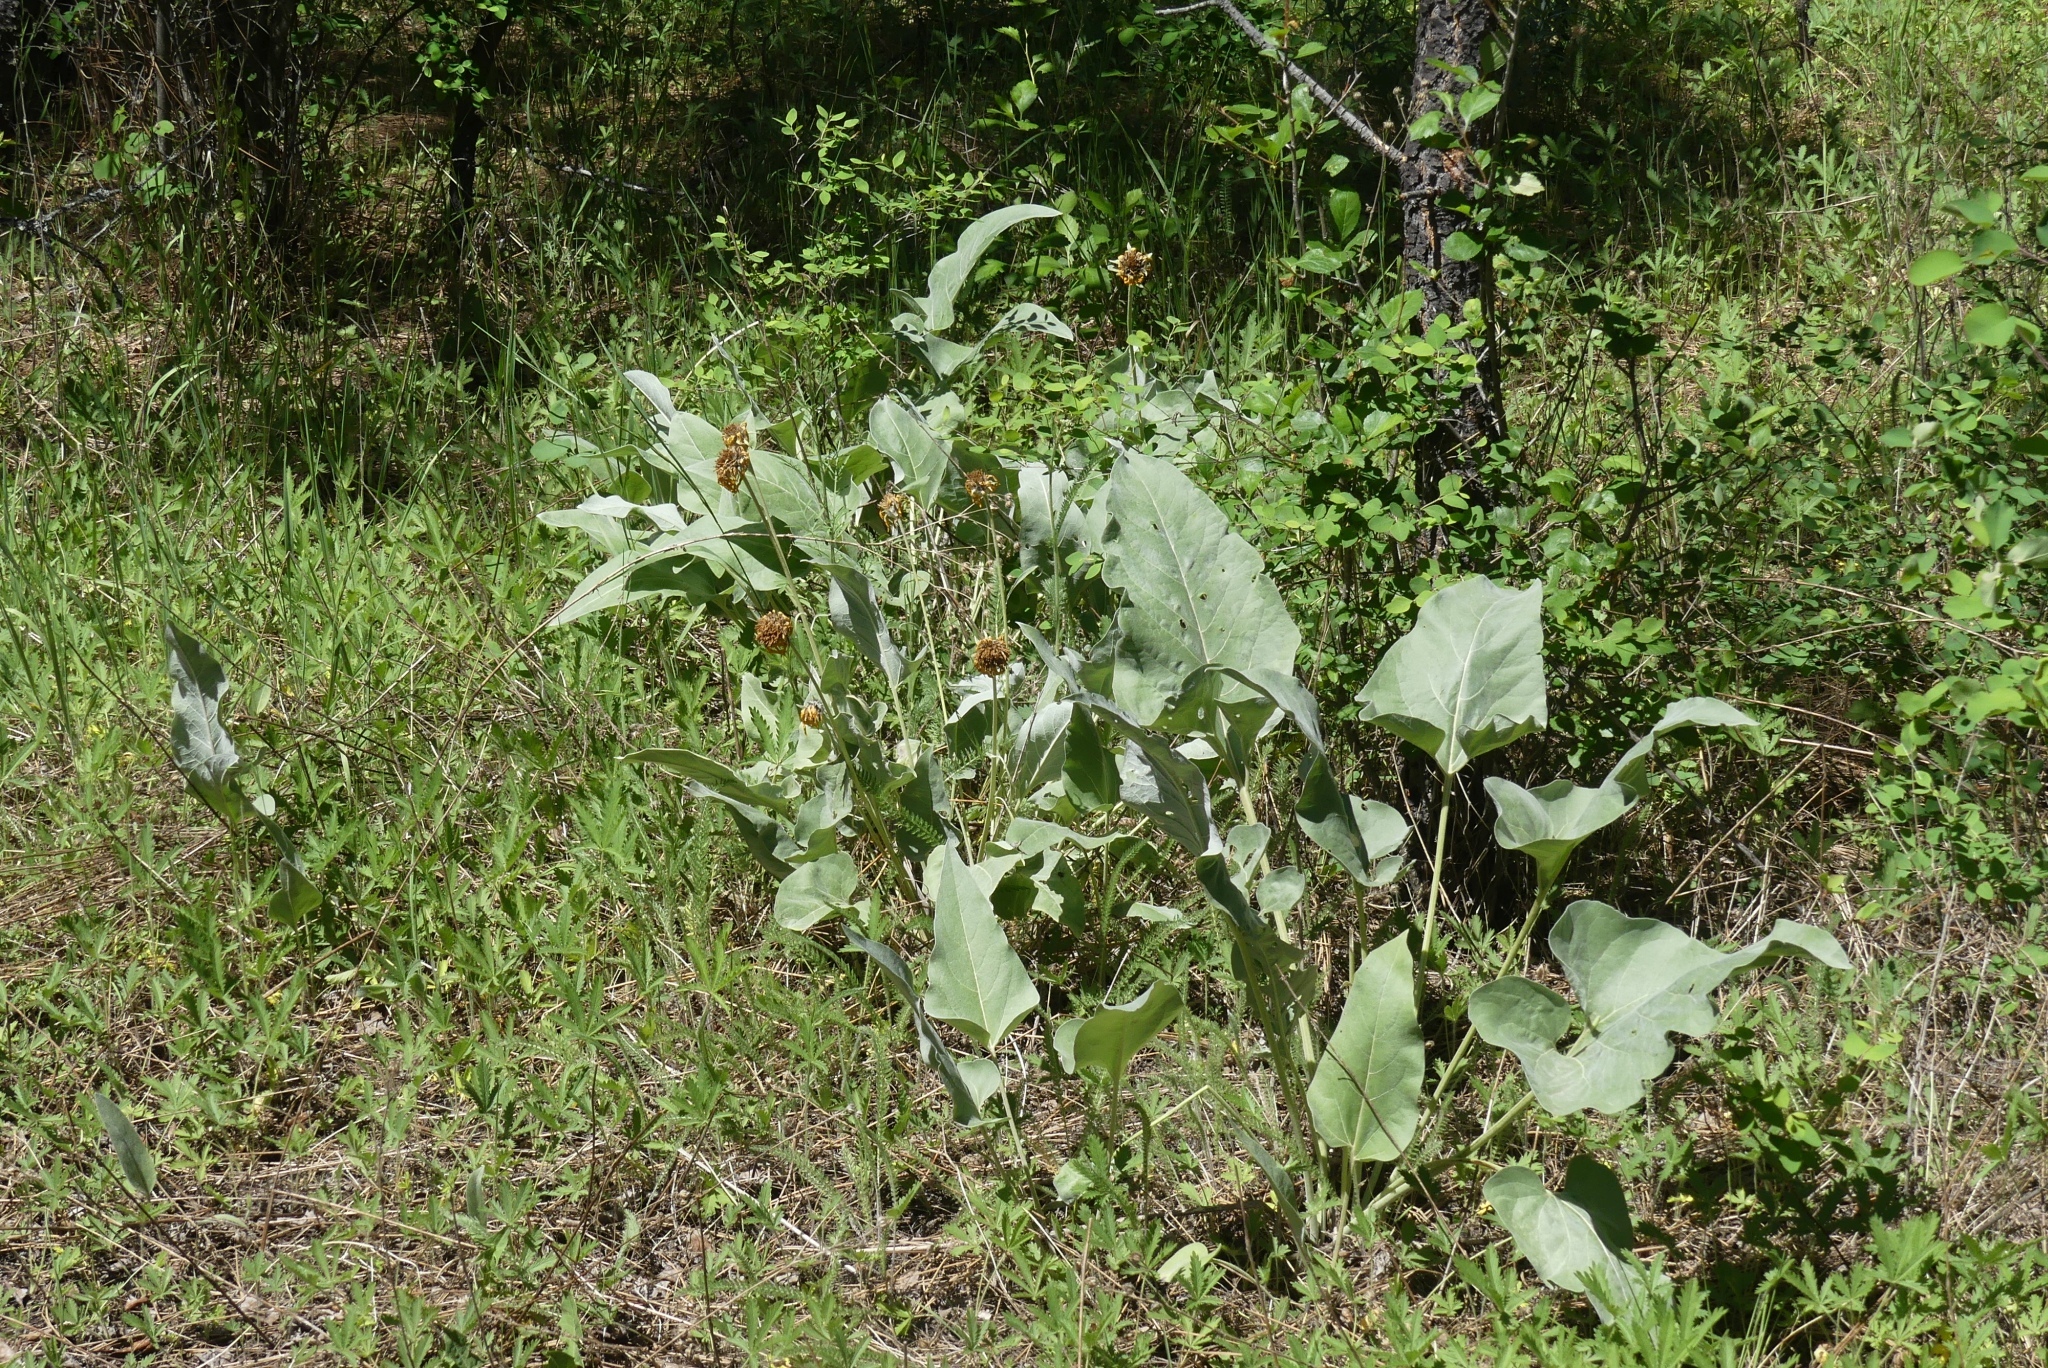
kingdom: Plantae
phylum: Tracheophyta
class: Magnoliopsida
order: Asterales
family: Asteraceae
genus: Wyethia
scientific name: Wyethia sagittata
